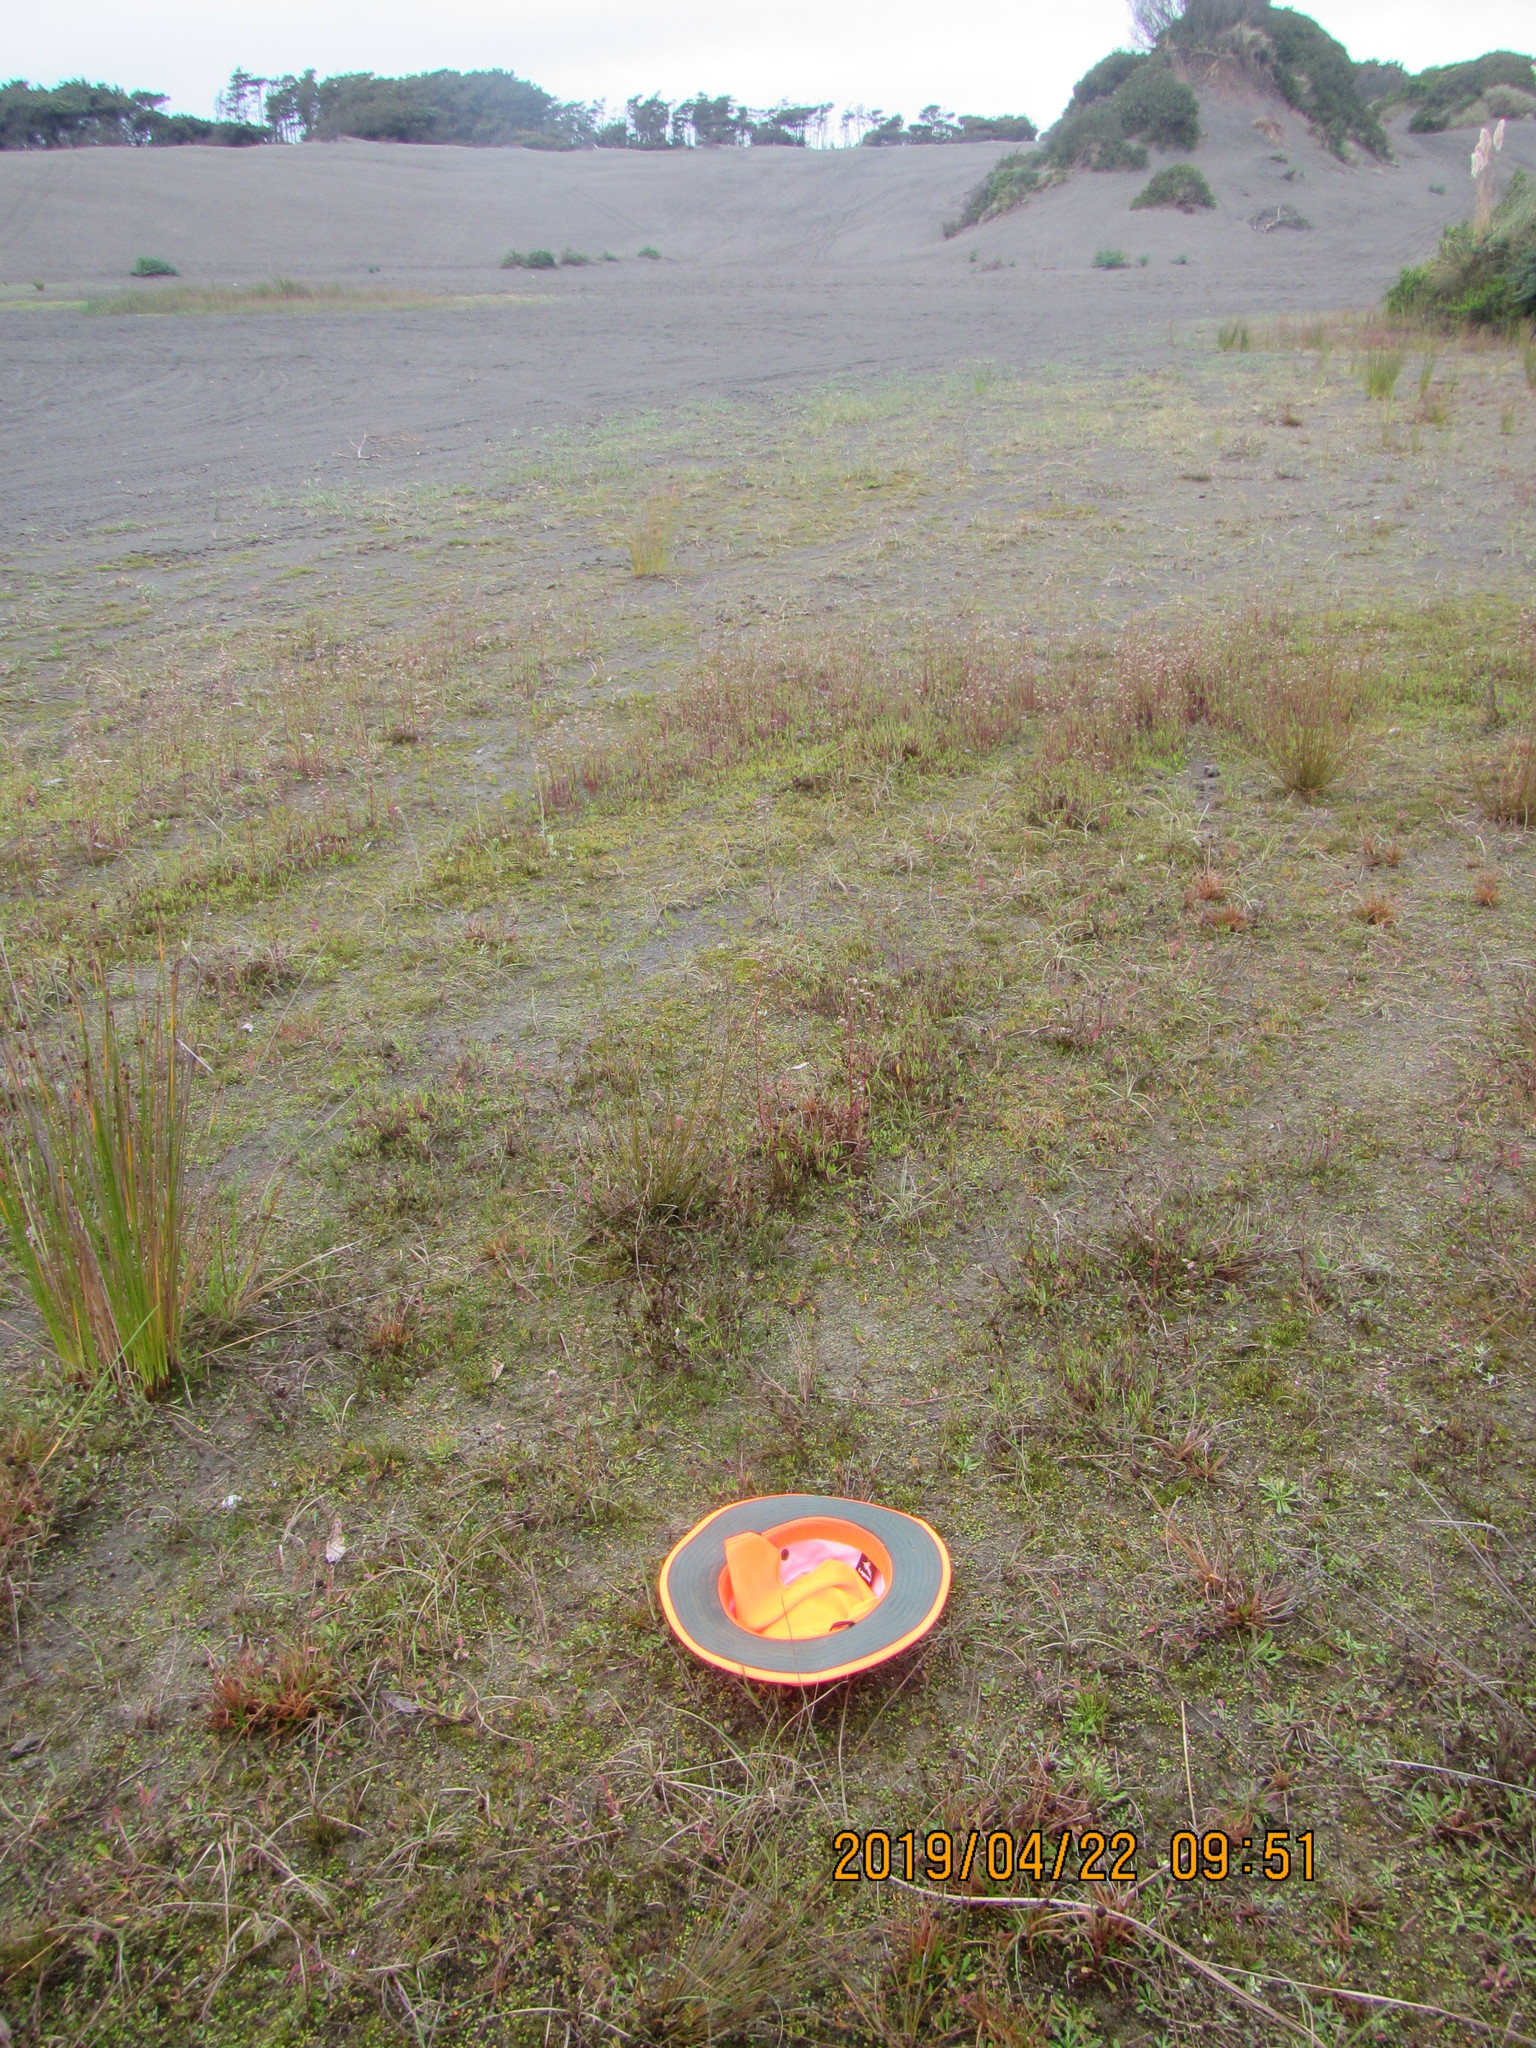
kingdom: Plantae
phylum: Tracheophyta
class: Magnoliopsida
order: Asterales
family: Goodeniaceae
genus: Goodenia
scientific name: Goodenia heenanii
